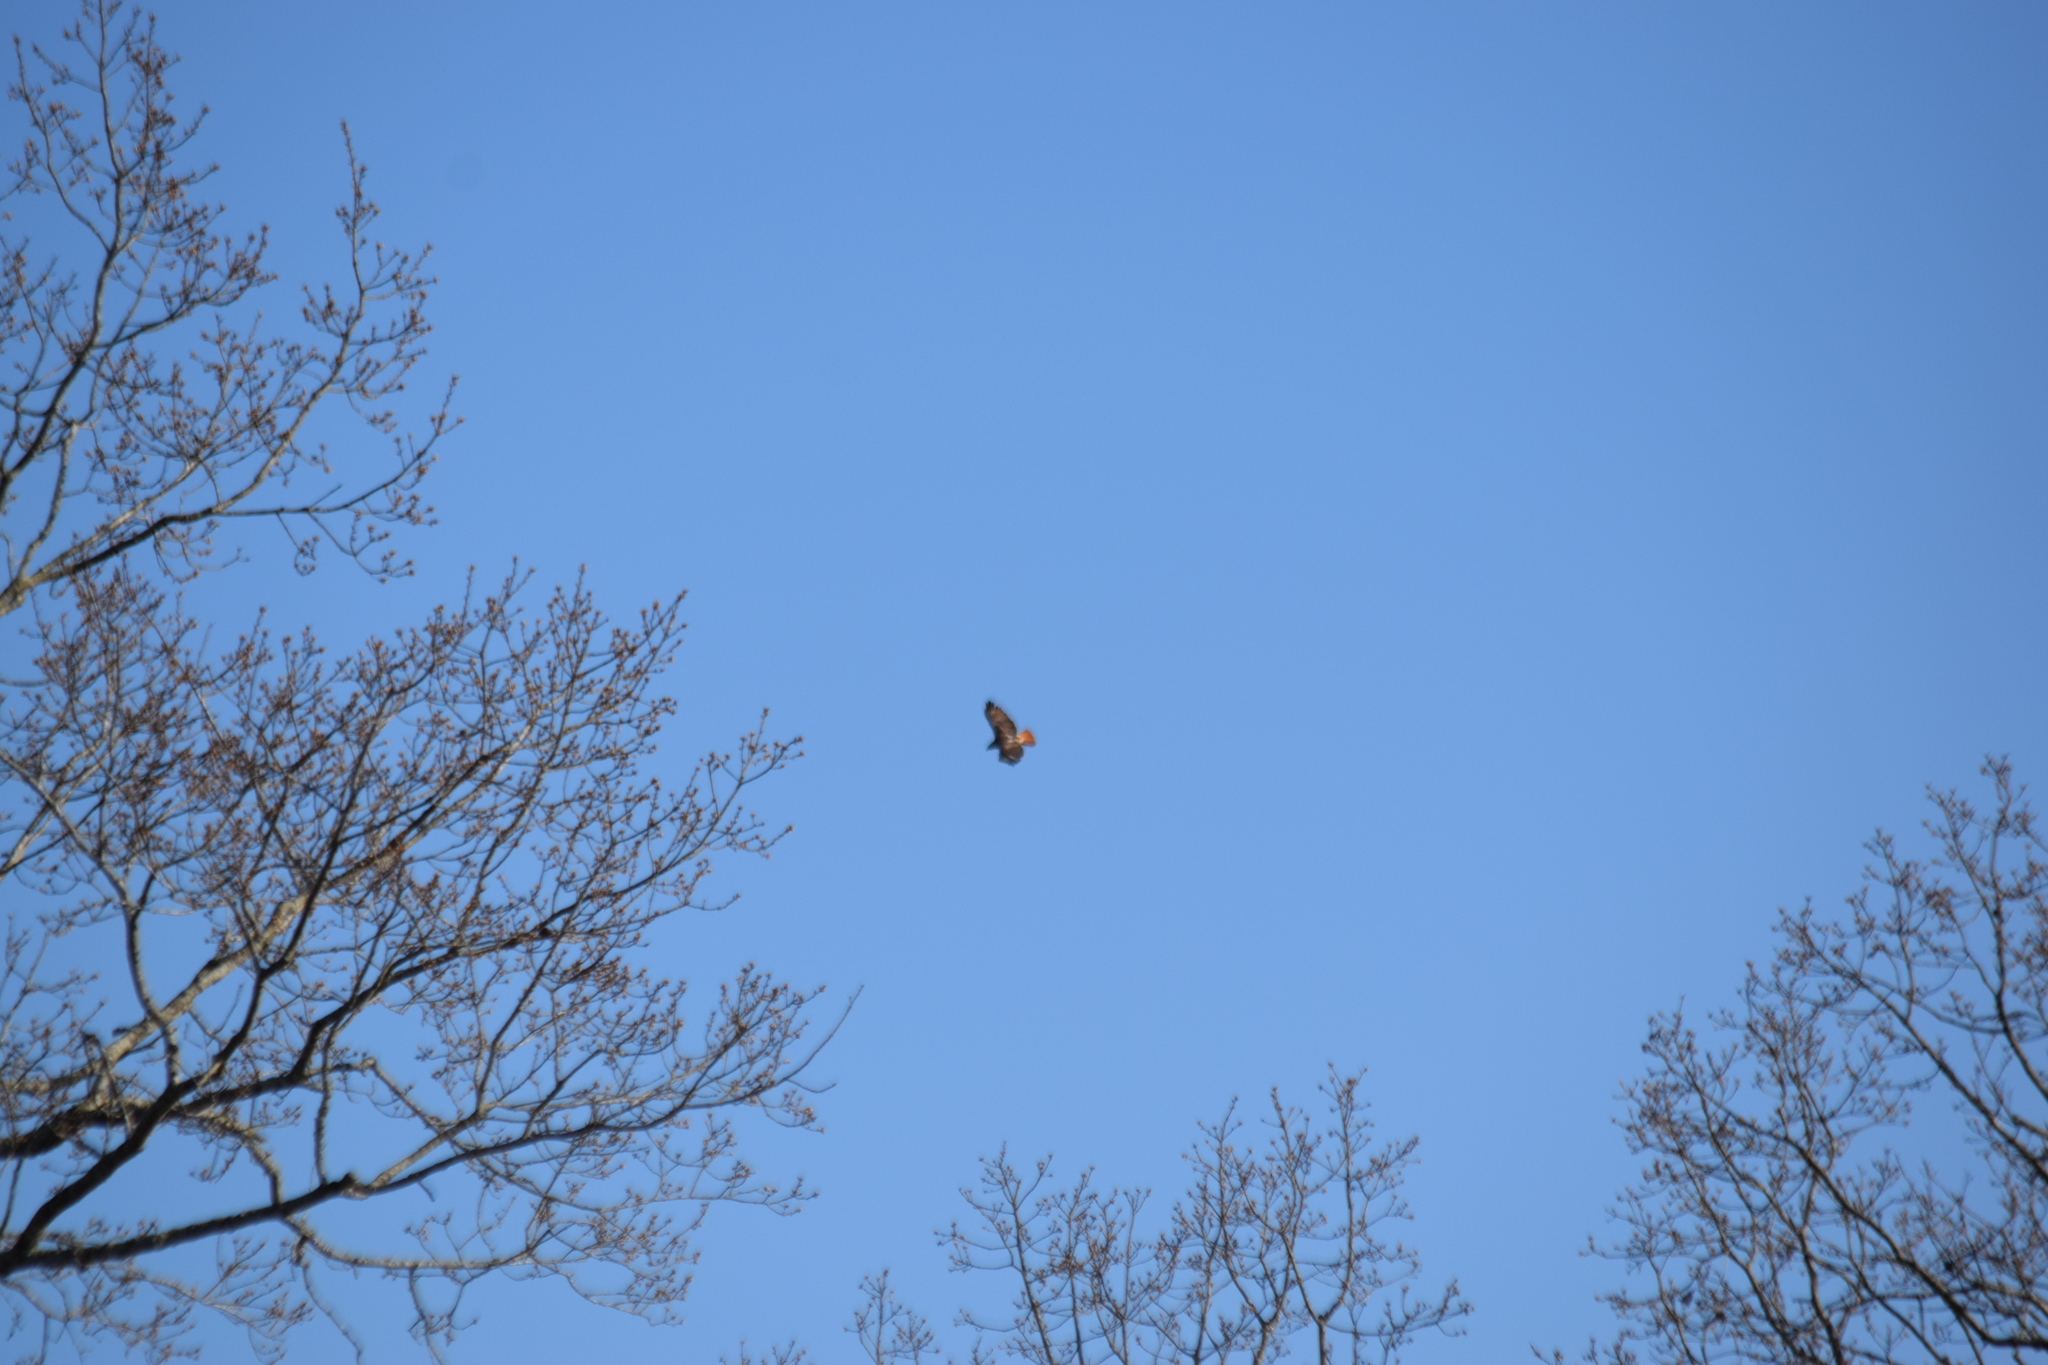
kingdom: Animalia
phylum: Chordata
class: Aves
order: Accipitriformes
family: Accipitridae
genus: Buteo
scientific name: Buteo jamaicensis
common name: Red-tailed hawk
